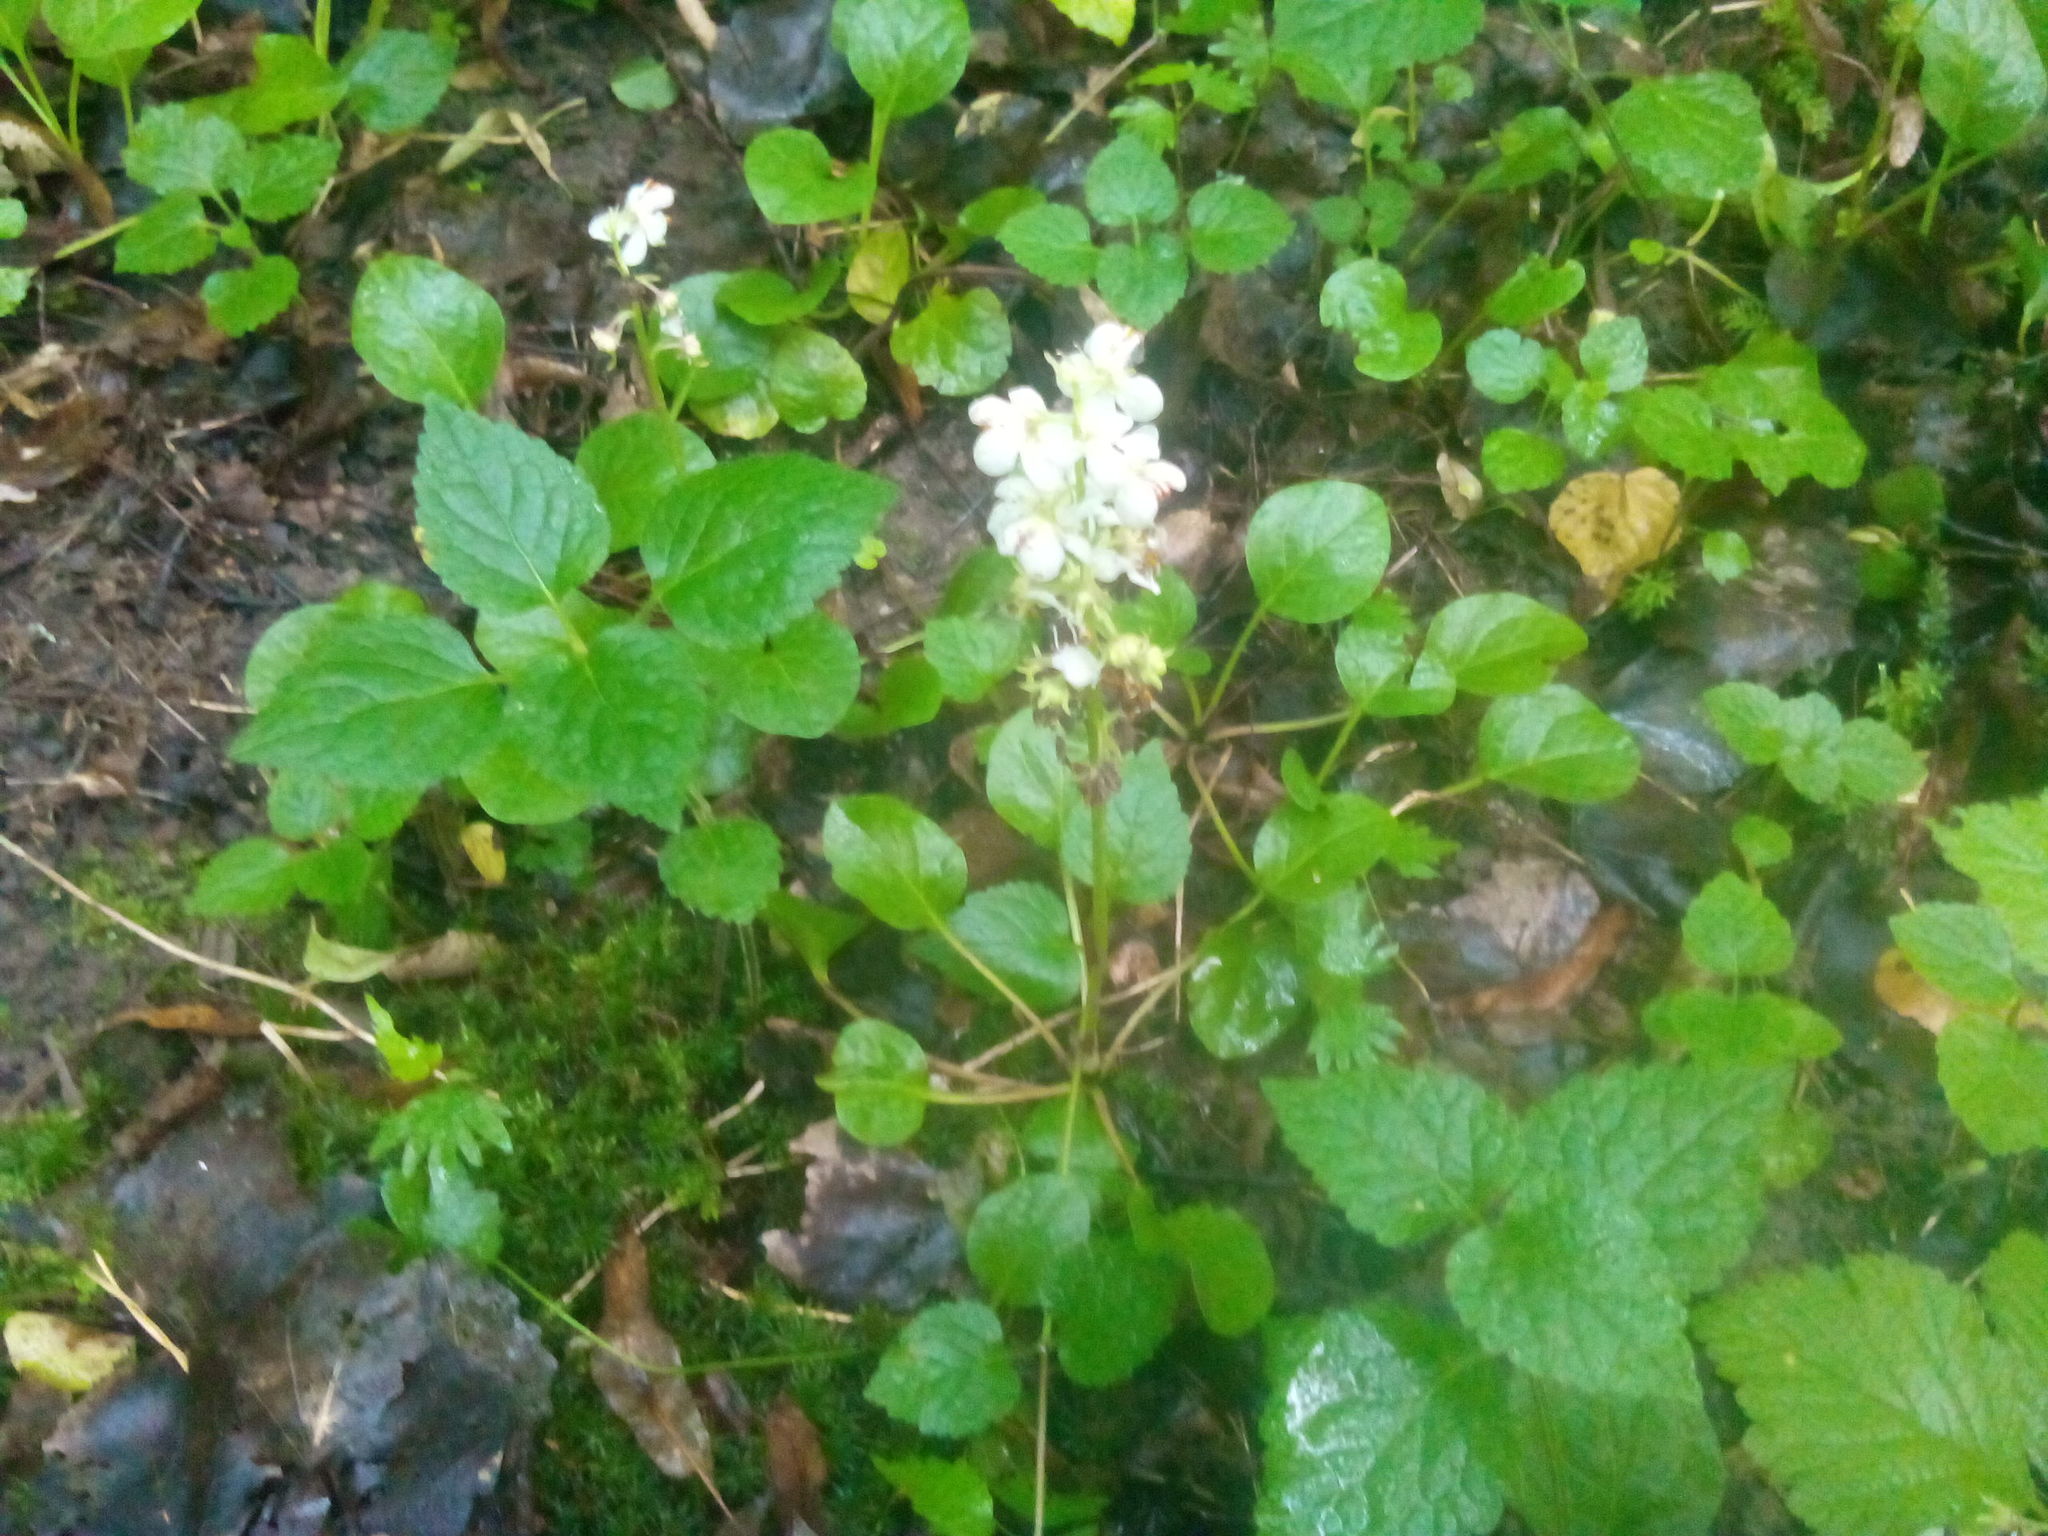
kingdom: Plantae
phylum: Tracheophyta
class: Magnoliopsida
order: Ericales
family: Ericaceae
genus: Pyrola
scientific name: Pyrola rotundifolia
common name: Round-leaved wintergreen
